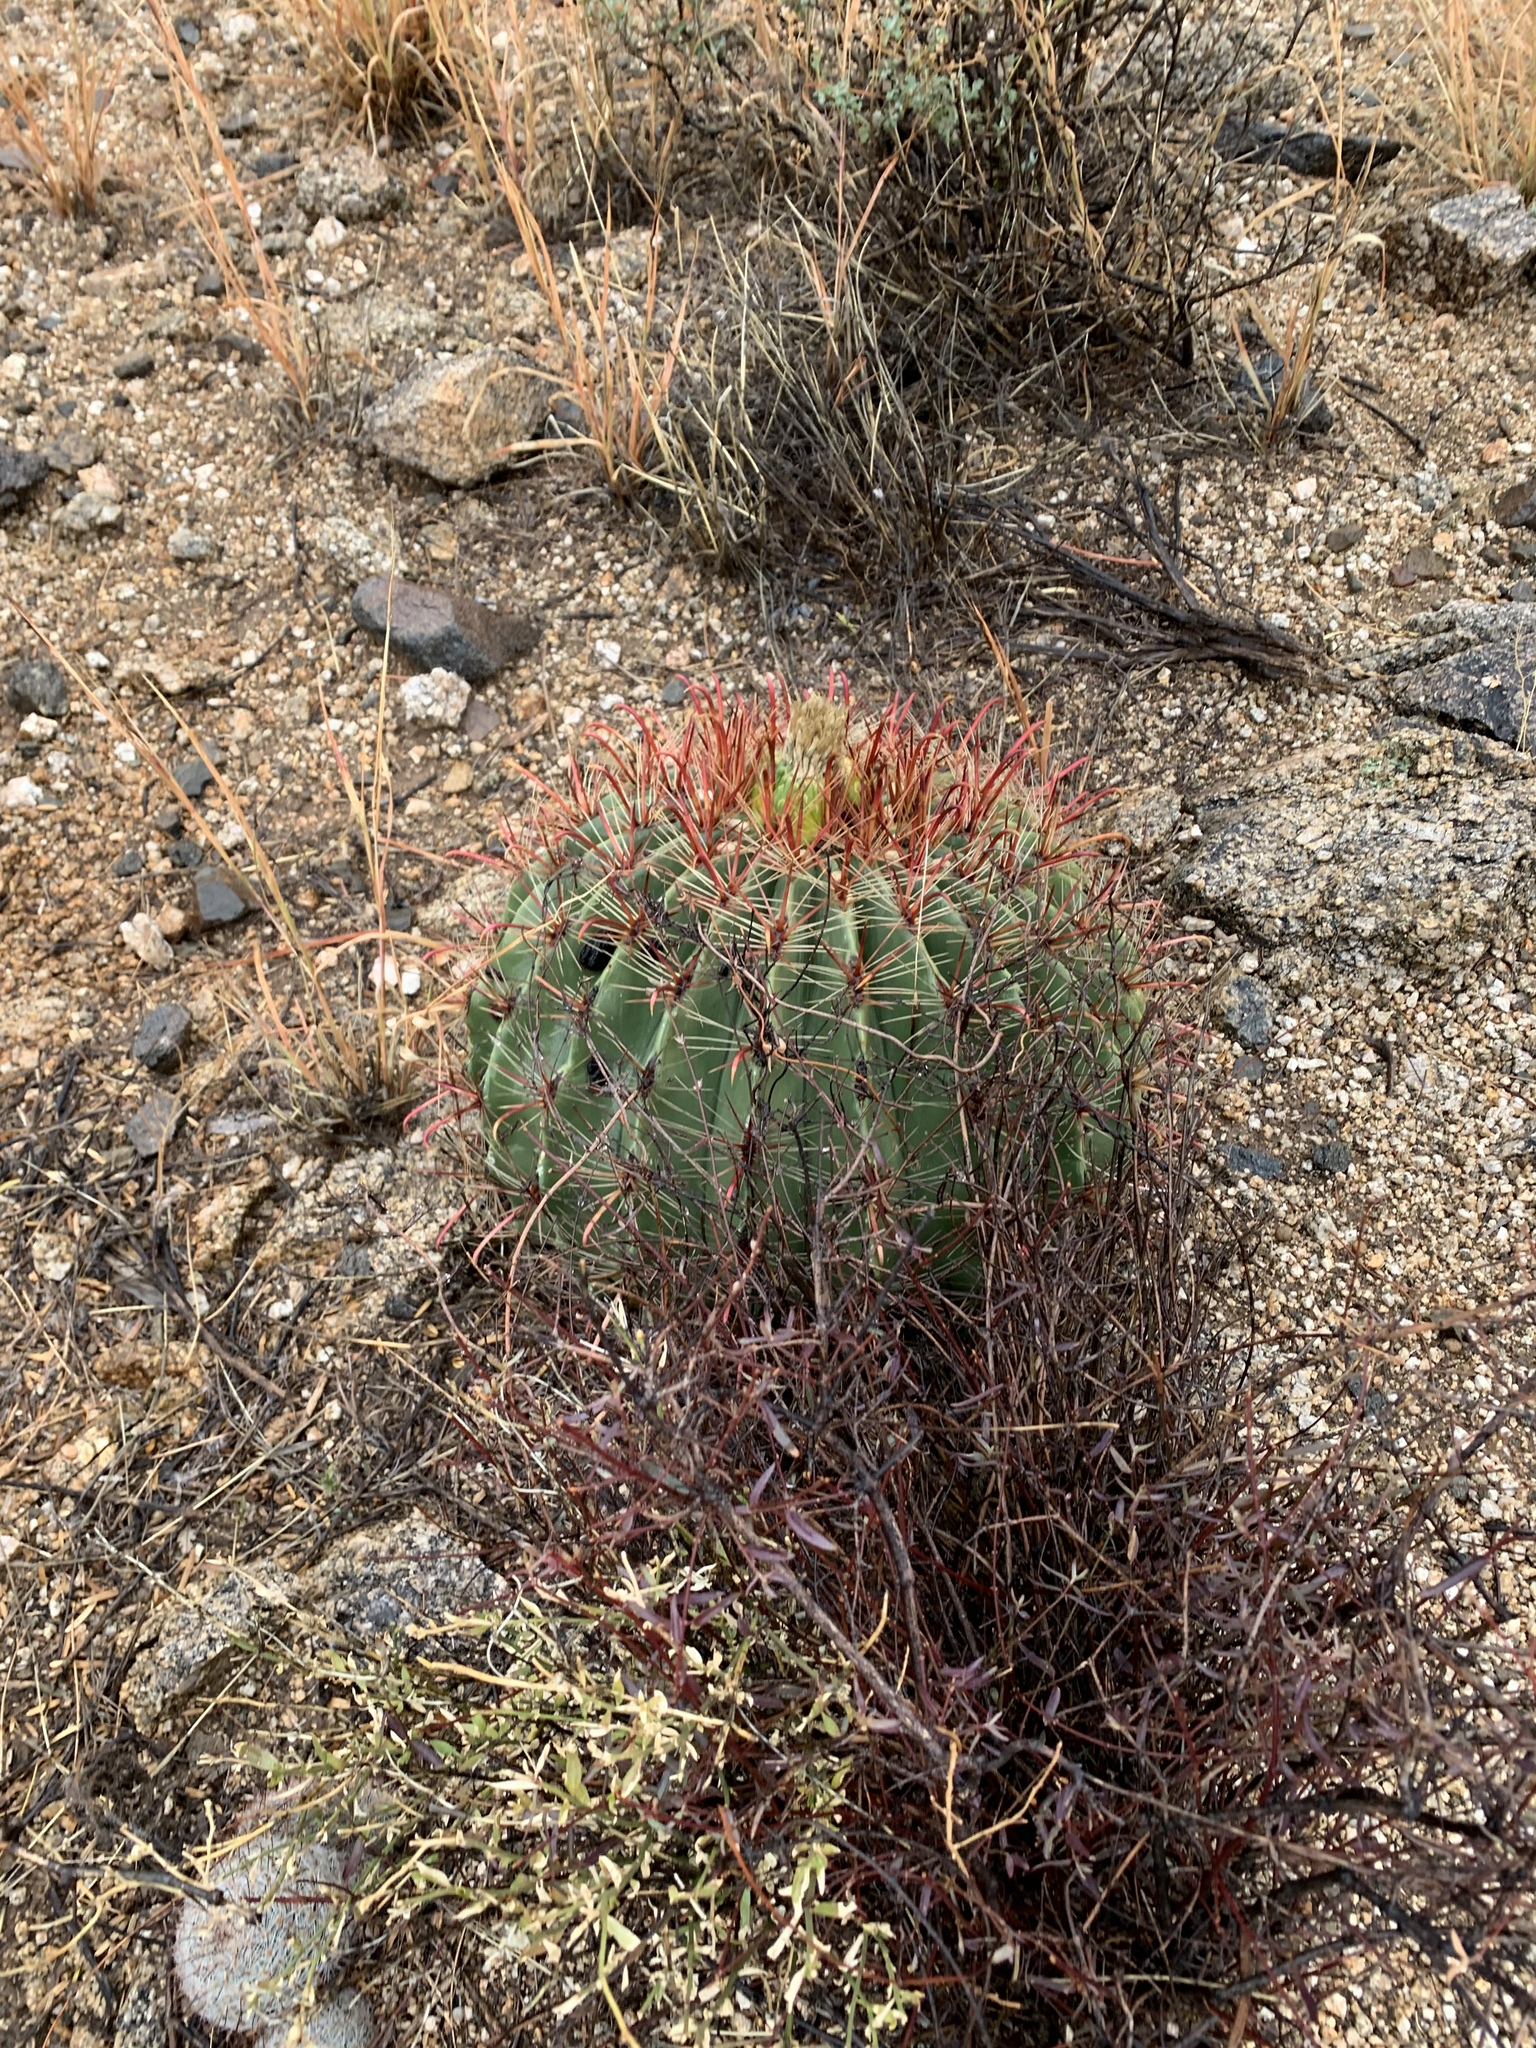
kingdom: Plantae
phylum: Tracheophyta
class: Magnoliopsida
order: Caryophyllales
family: Cactaceae
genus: Ferocactus
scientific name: Ferocactus wislizeni
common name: Candy barrel cactus
